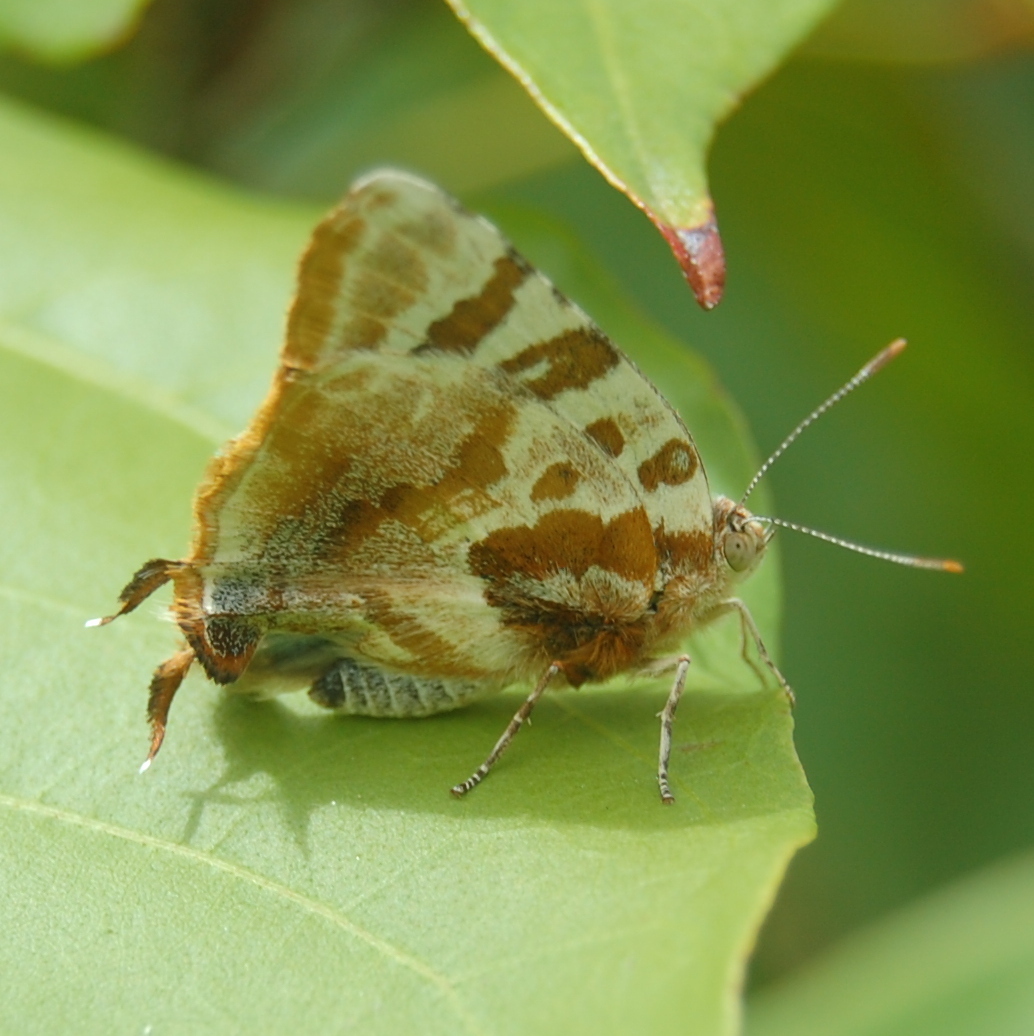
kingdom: Animalia
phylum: Arthropoda
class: Insecta
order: Lepidoptera
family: Lycaenidae
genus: Arawacus
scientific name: Arawacus ellida
